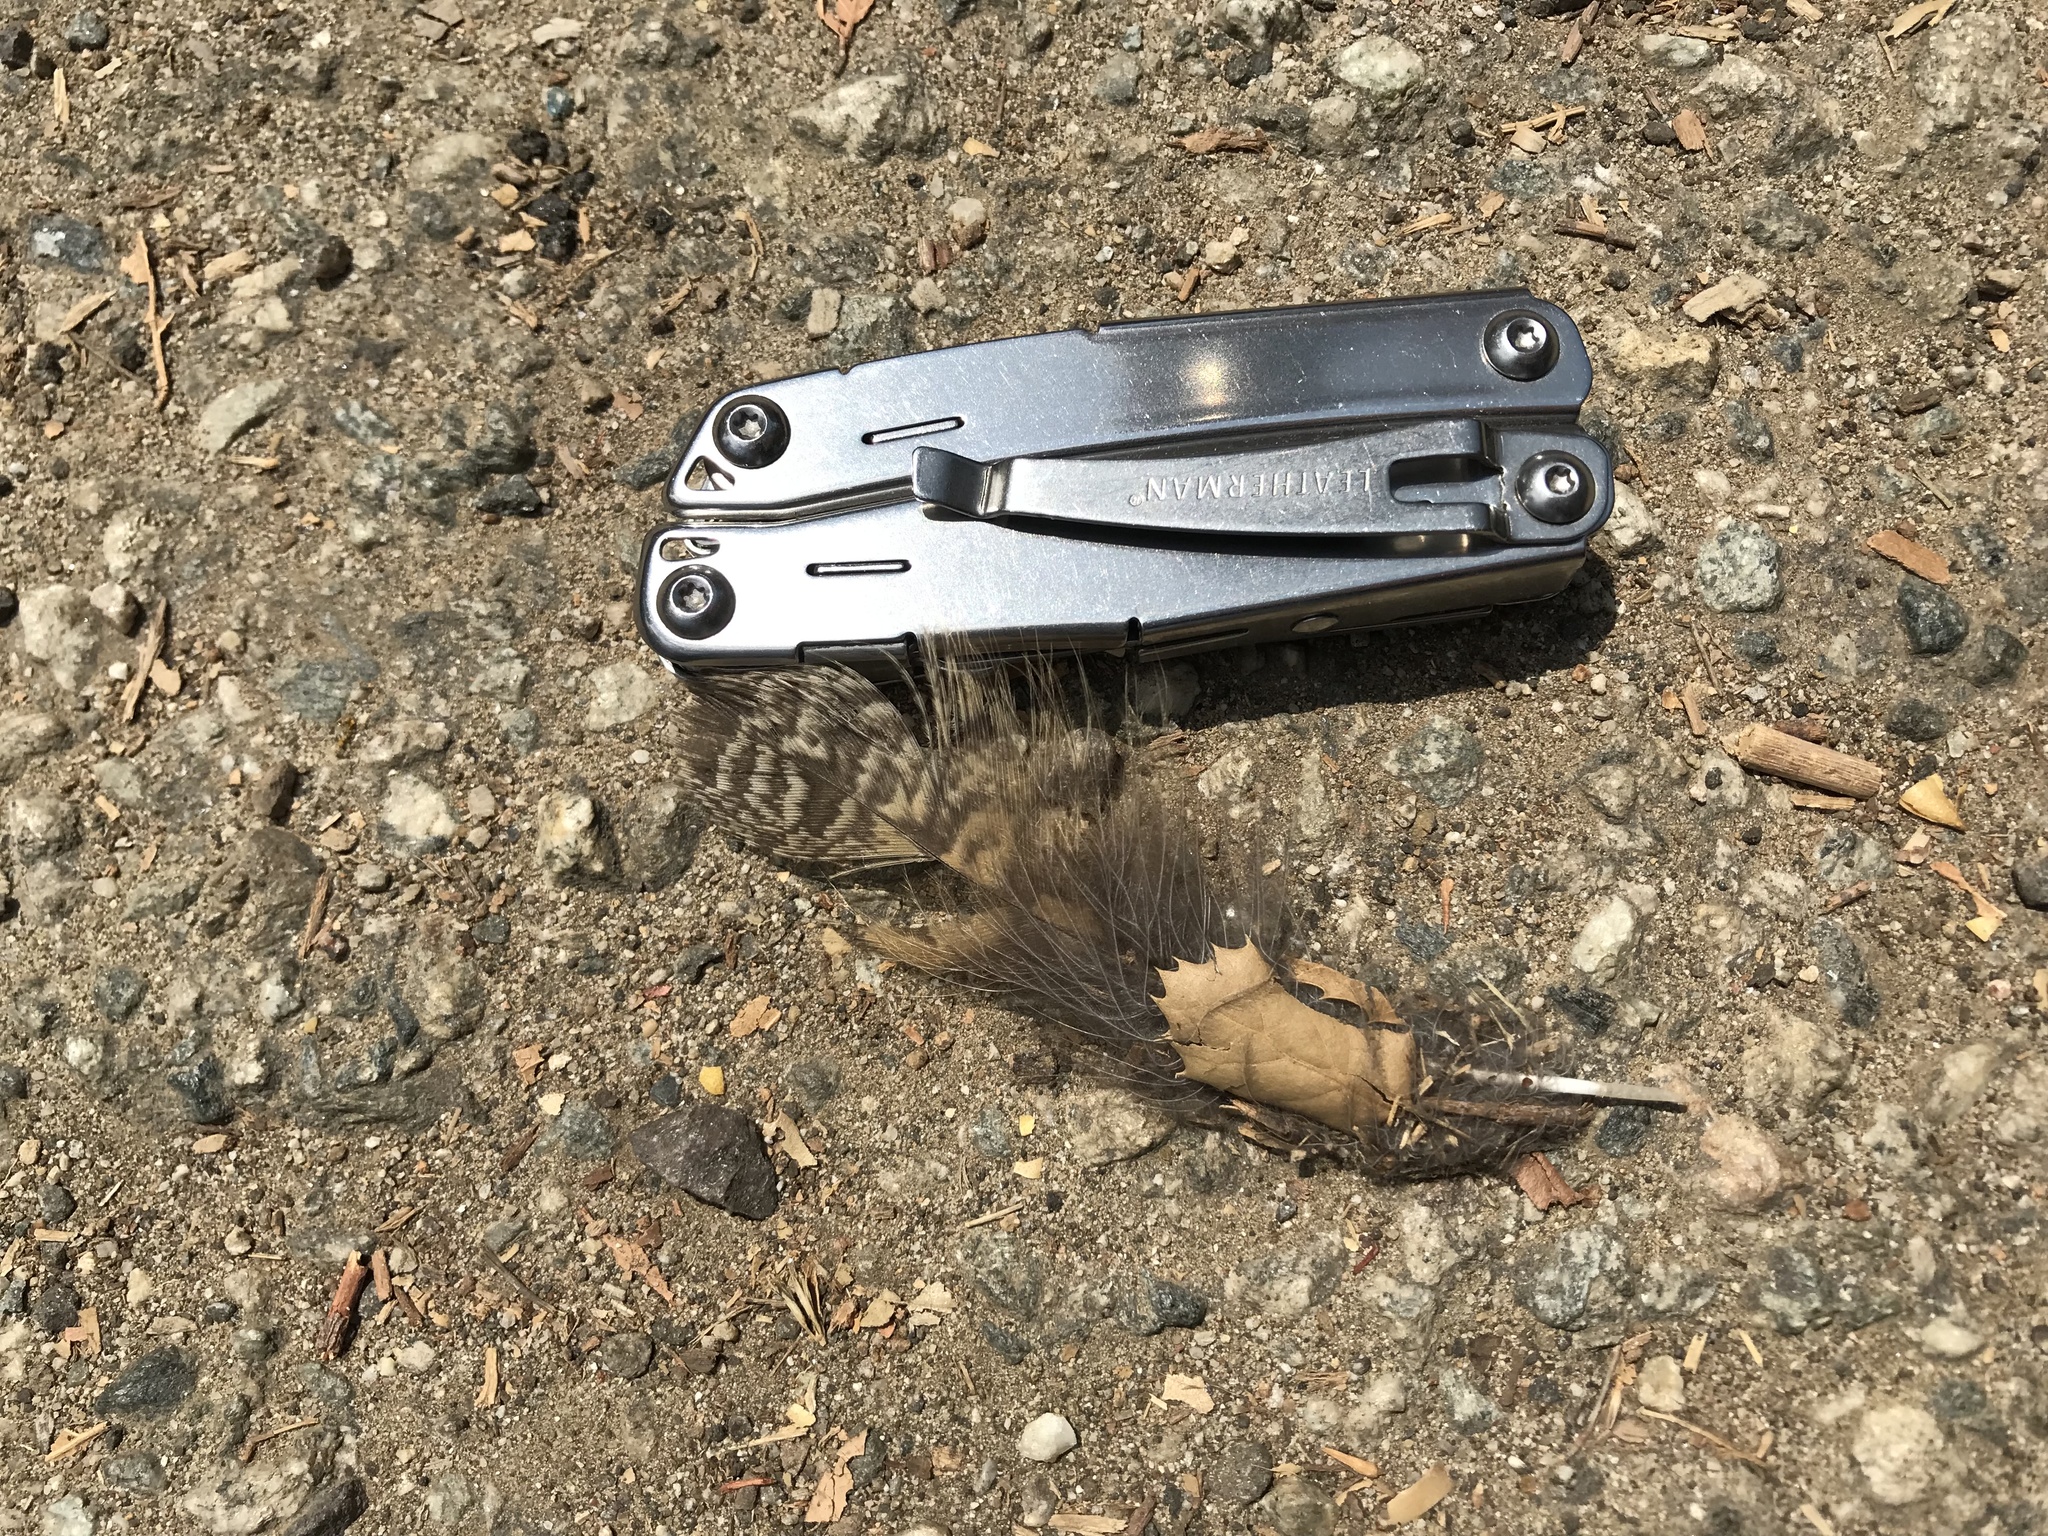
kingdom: Animalia
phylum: Chordata
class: Aves
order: Strigiformes
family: Strigidae
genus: Bubo
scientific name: Bubo virginianus
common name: Great horned owl
